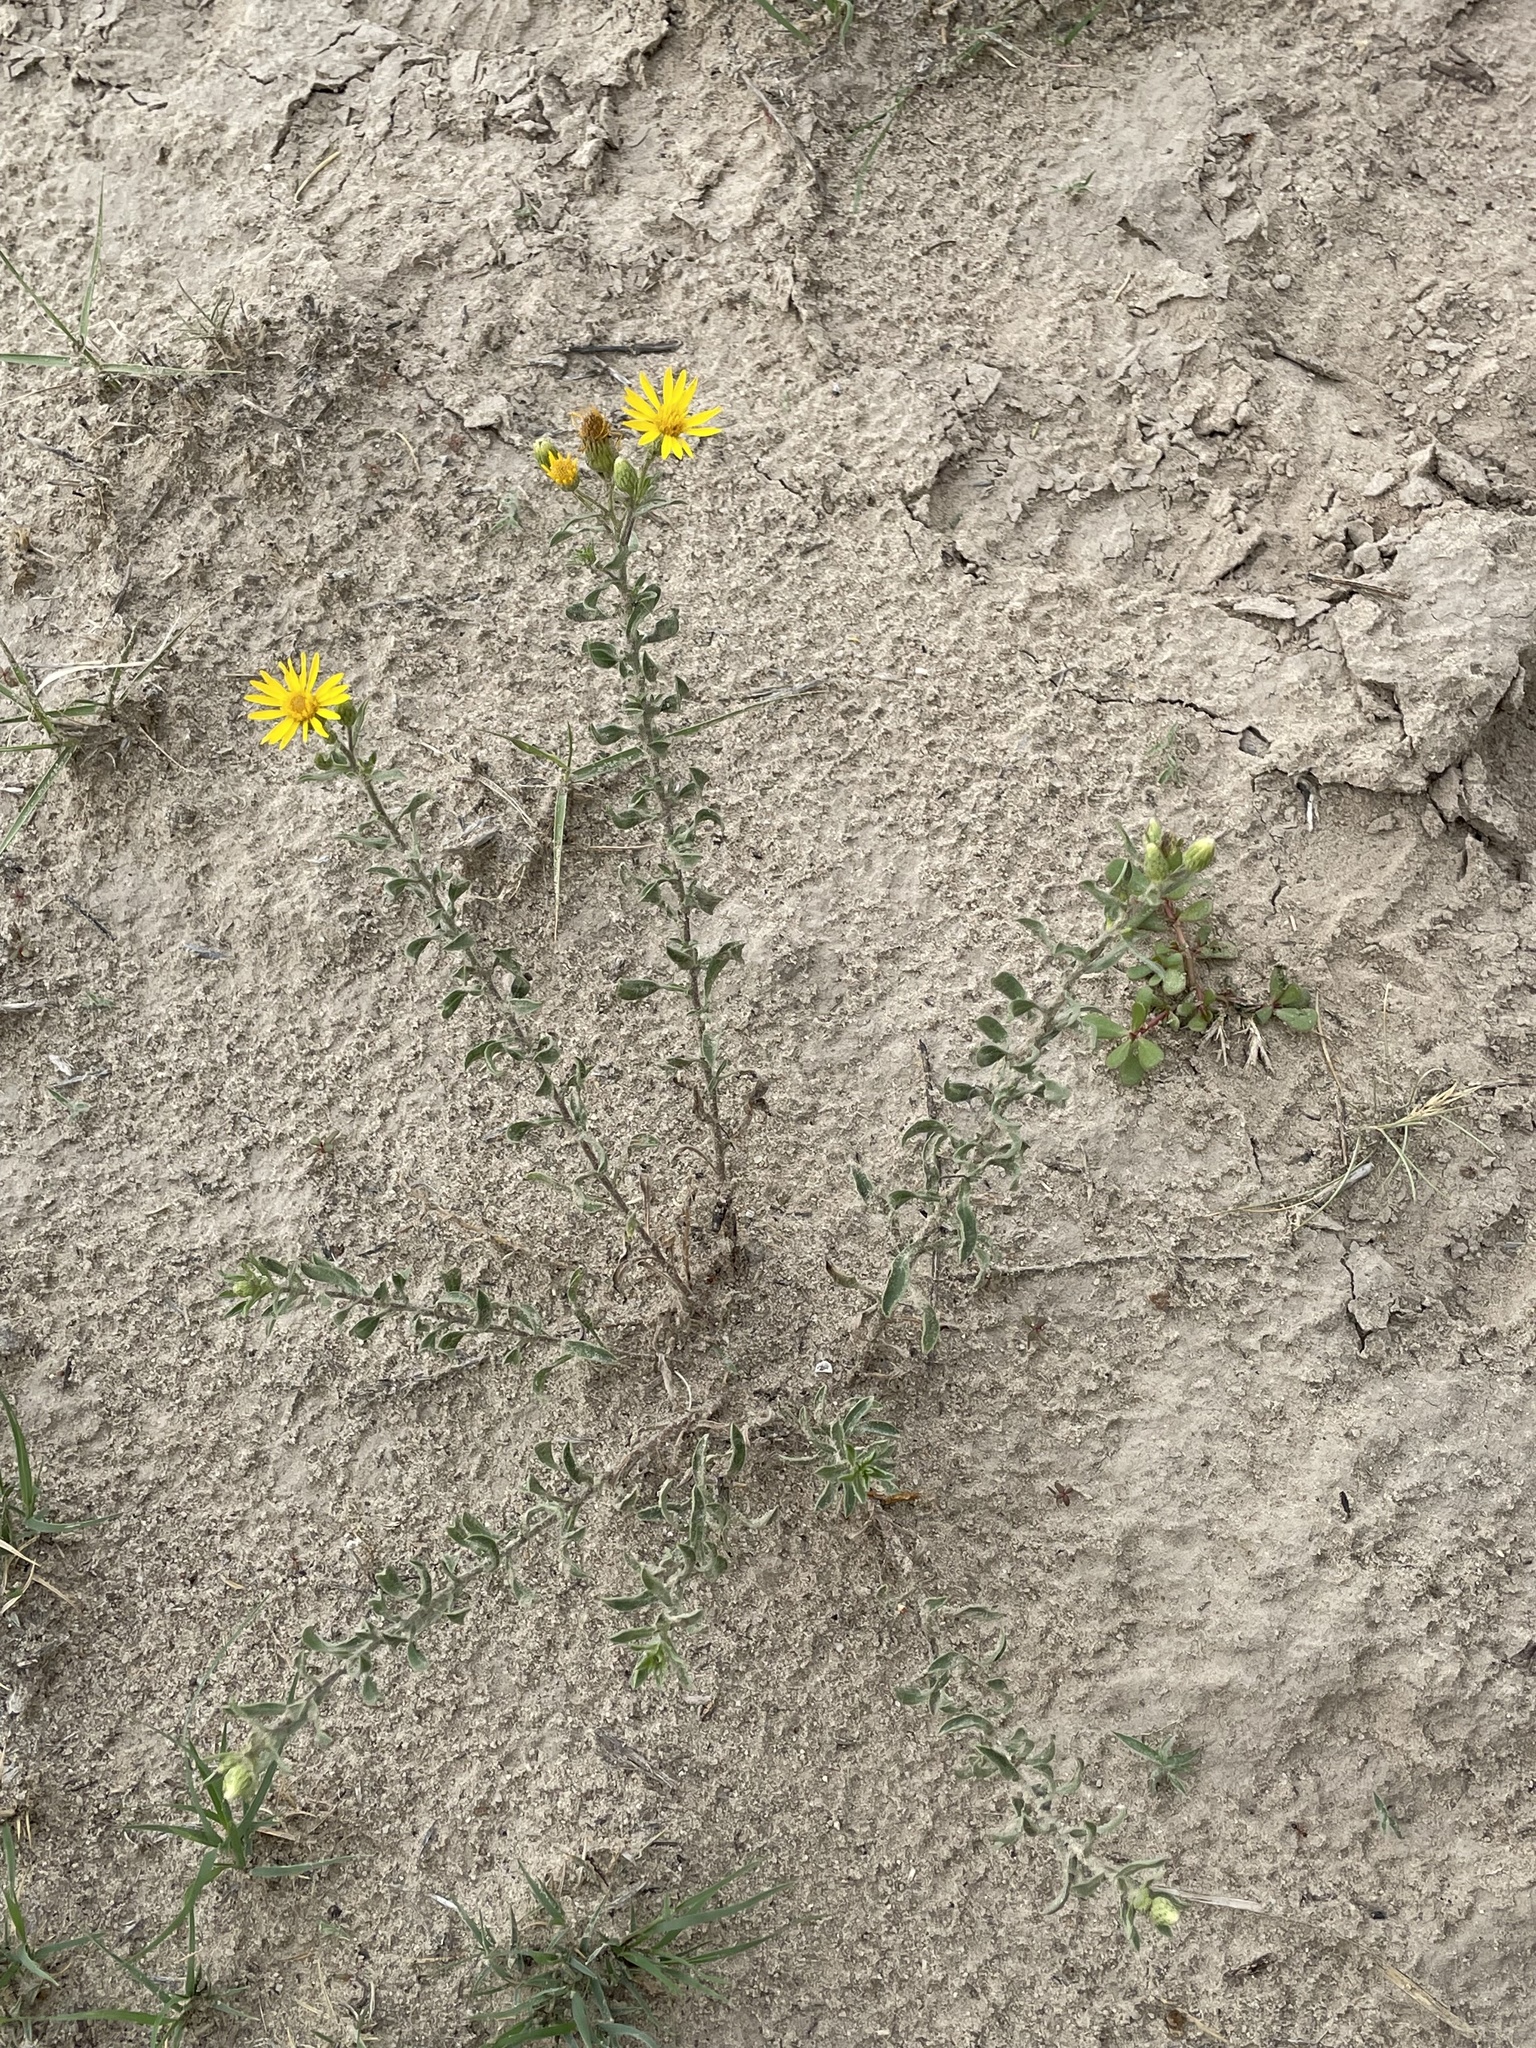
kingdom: Plantae
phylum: Tracheophyta
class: Magnoliopsida
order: Asterales
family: Asteraceae
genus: Heterotheca
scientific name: Heterotheca hirsutissima
